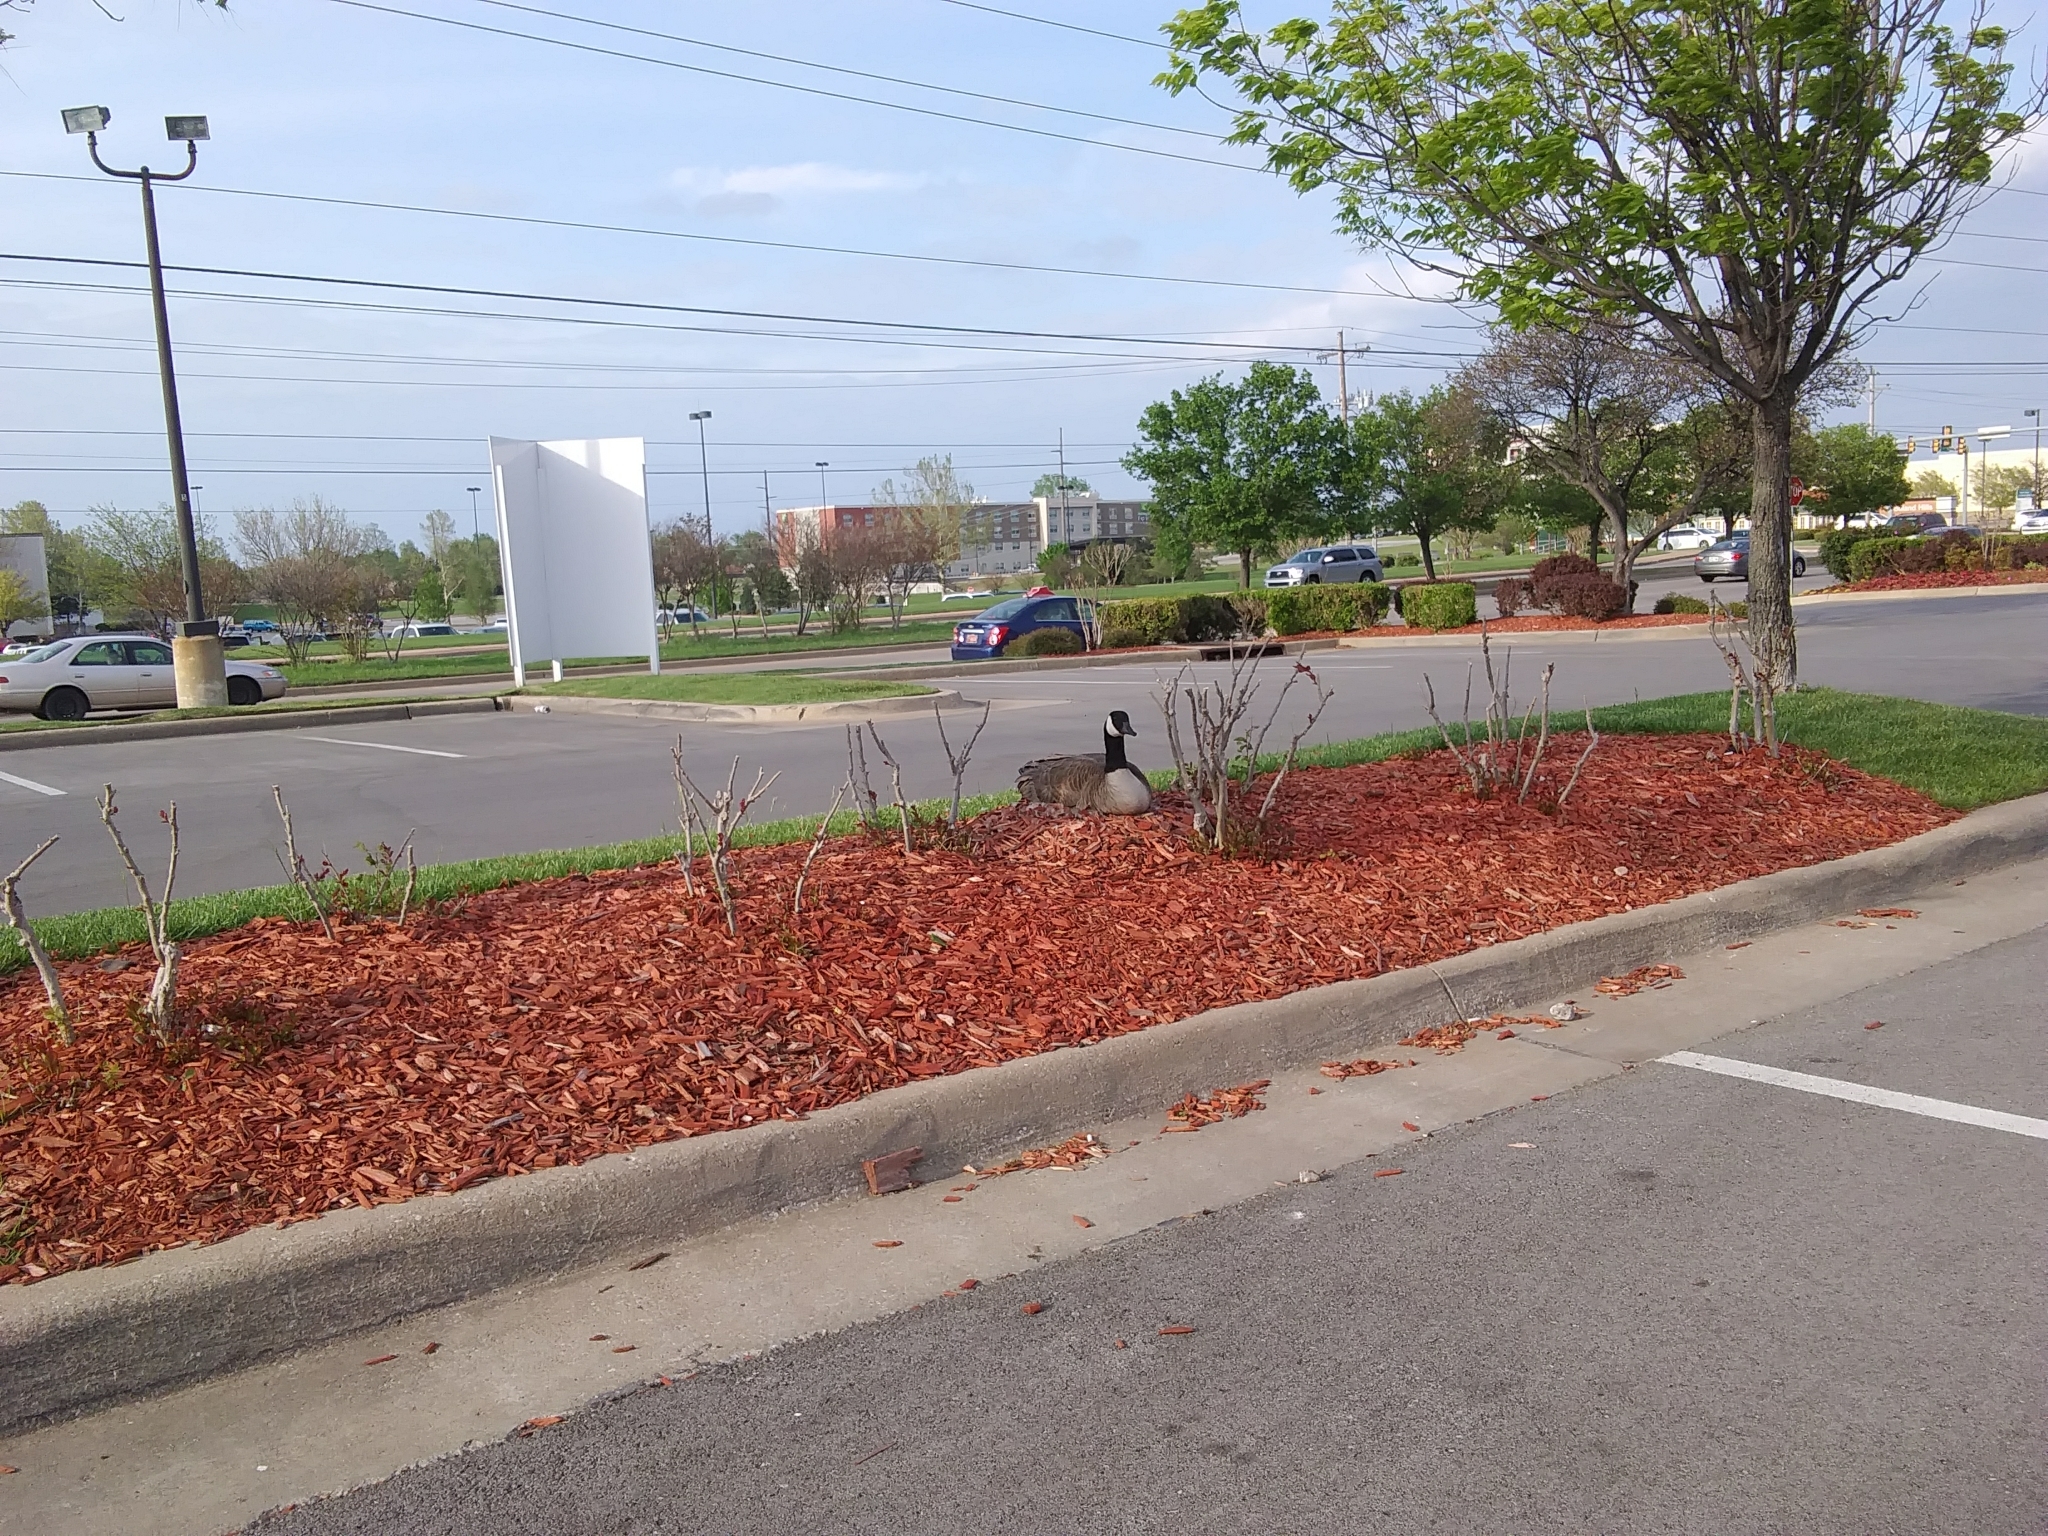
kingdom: Animalia
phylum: Chordata
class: Aves
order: Anseriformes
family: Anatidae
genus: Branta
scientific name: Branta canadensis
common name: Canada goose
